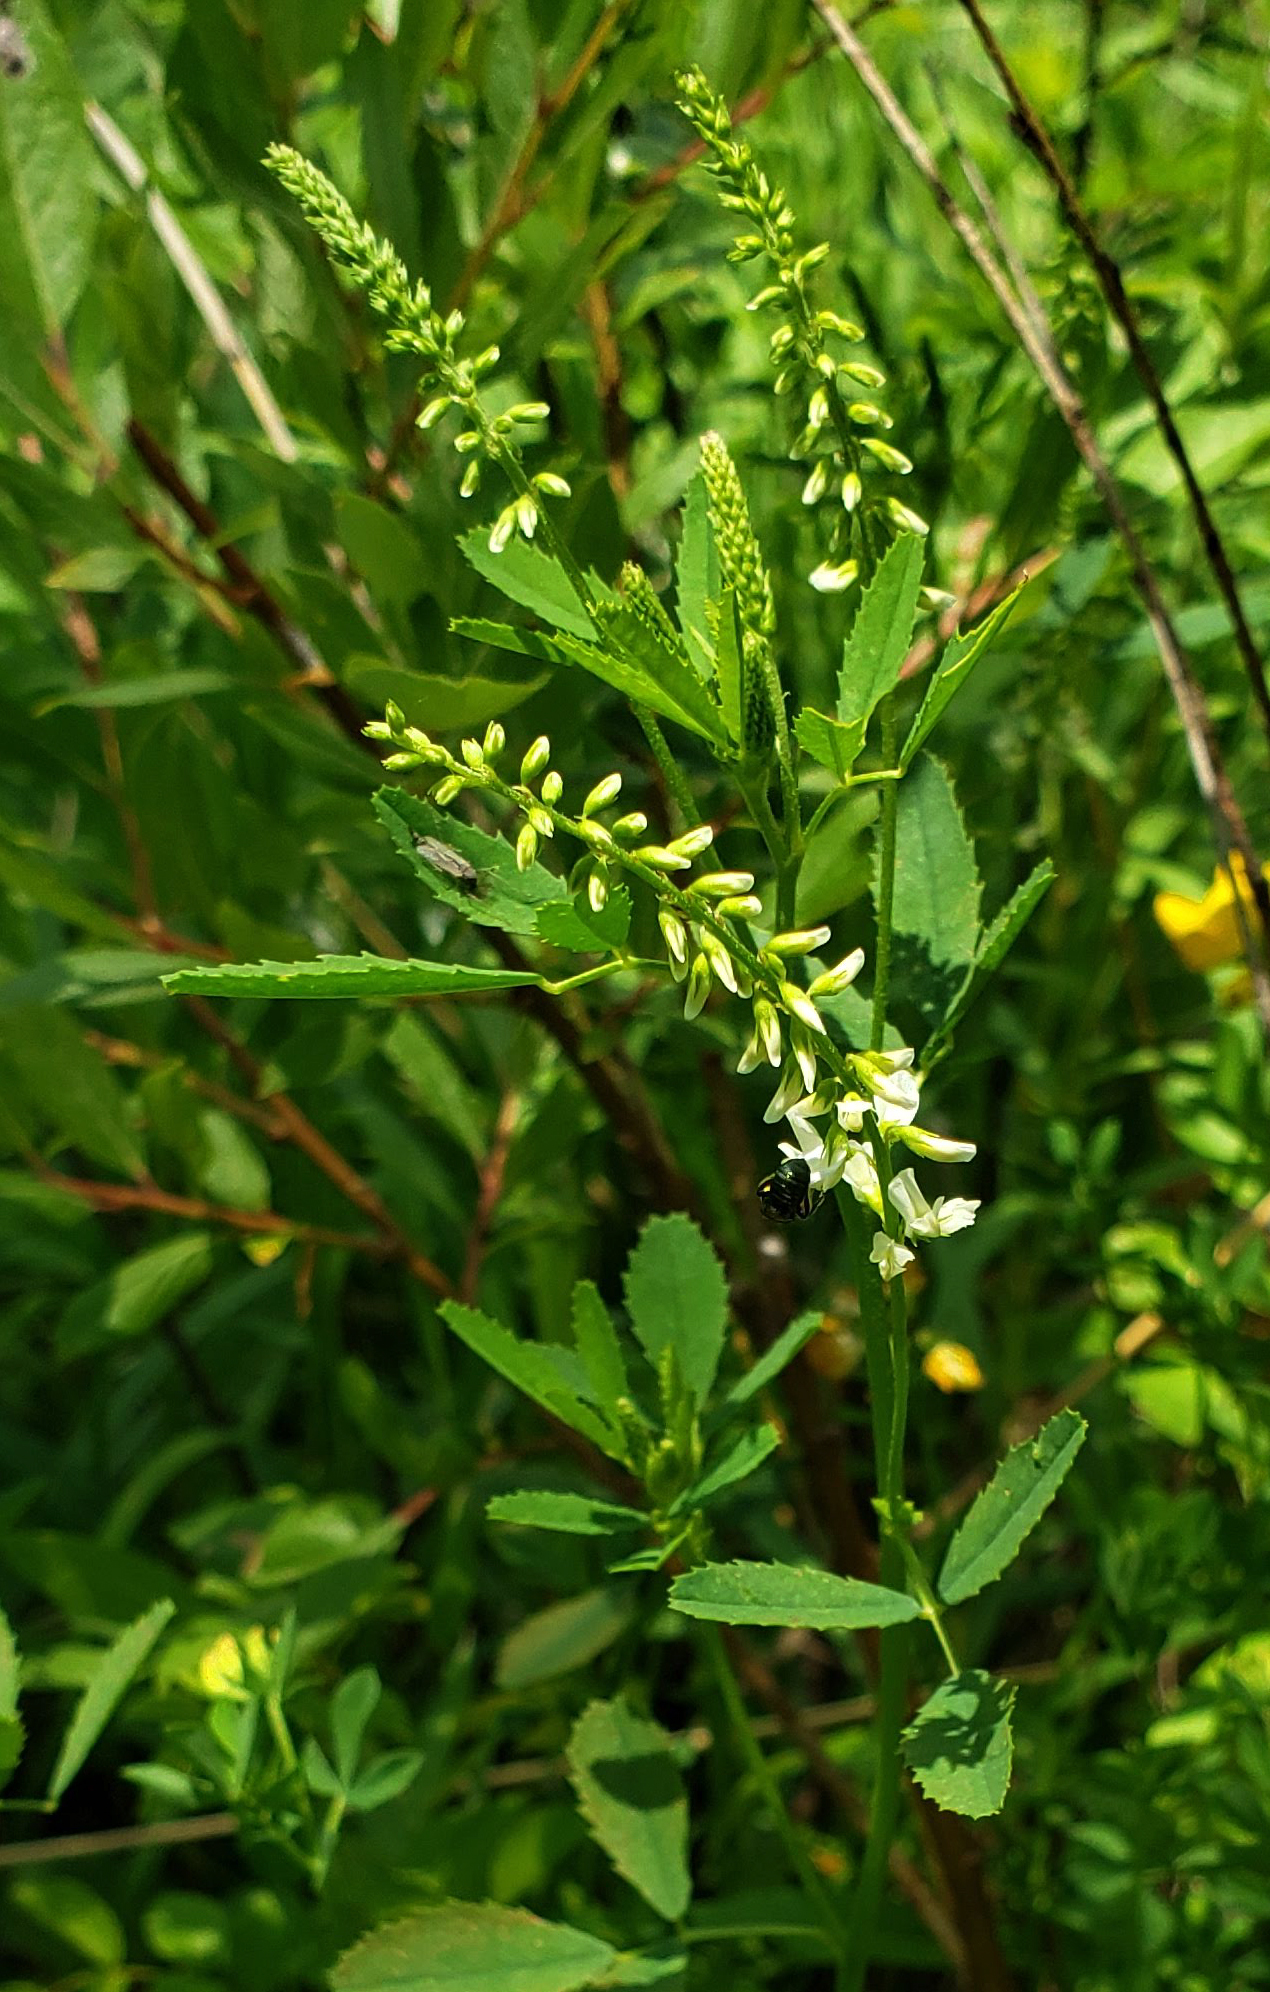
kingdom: Plantae
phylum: Tracheophyta
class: Magnoliopsida
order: Fabales
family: Fabaceae
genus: Melilotus
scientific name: Melilotus albus
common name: White melilot
